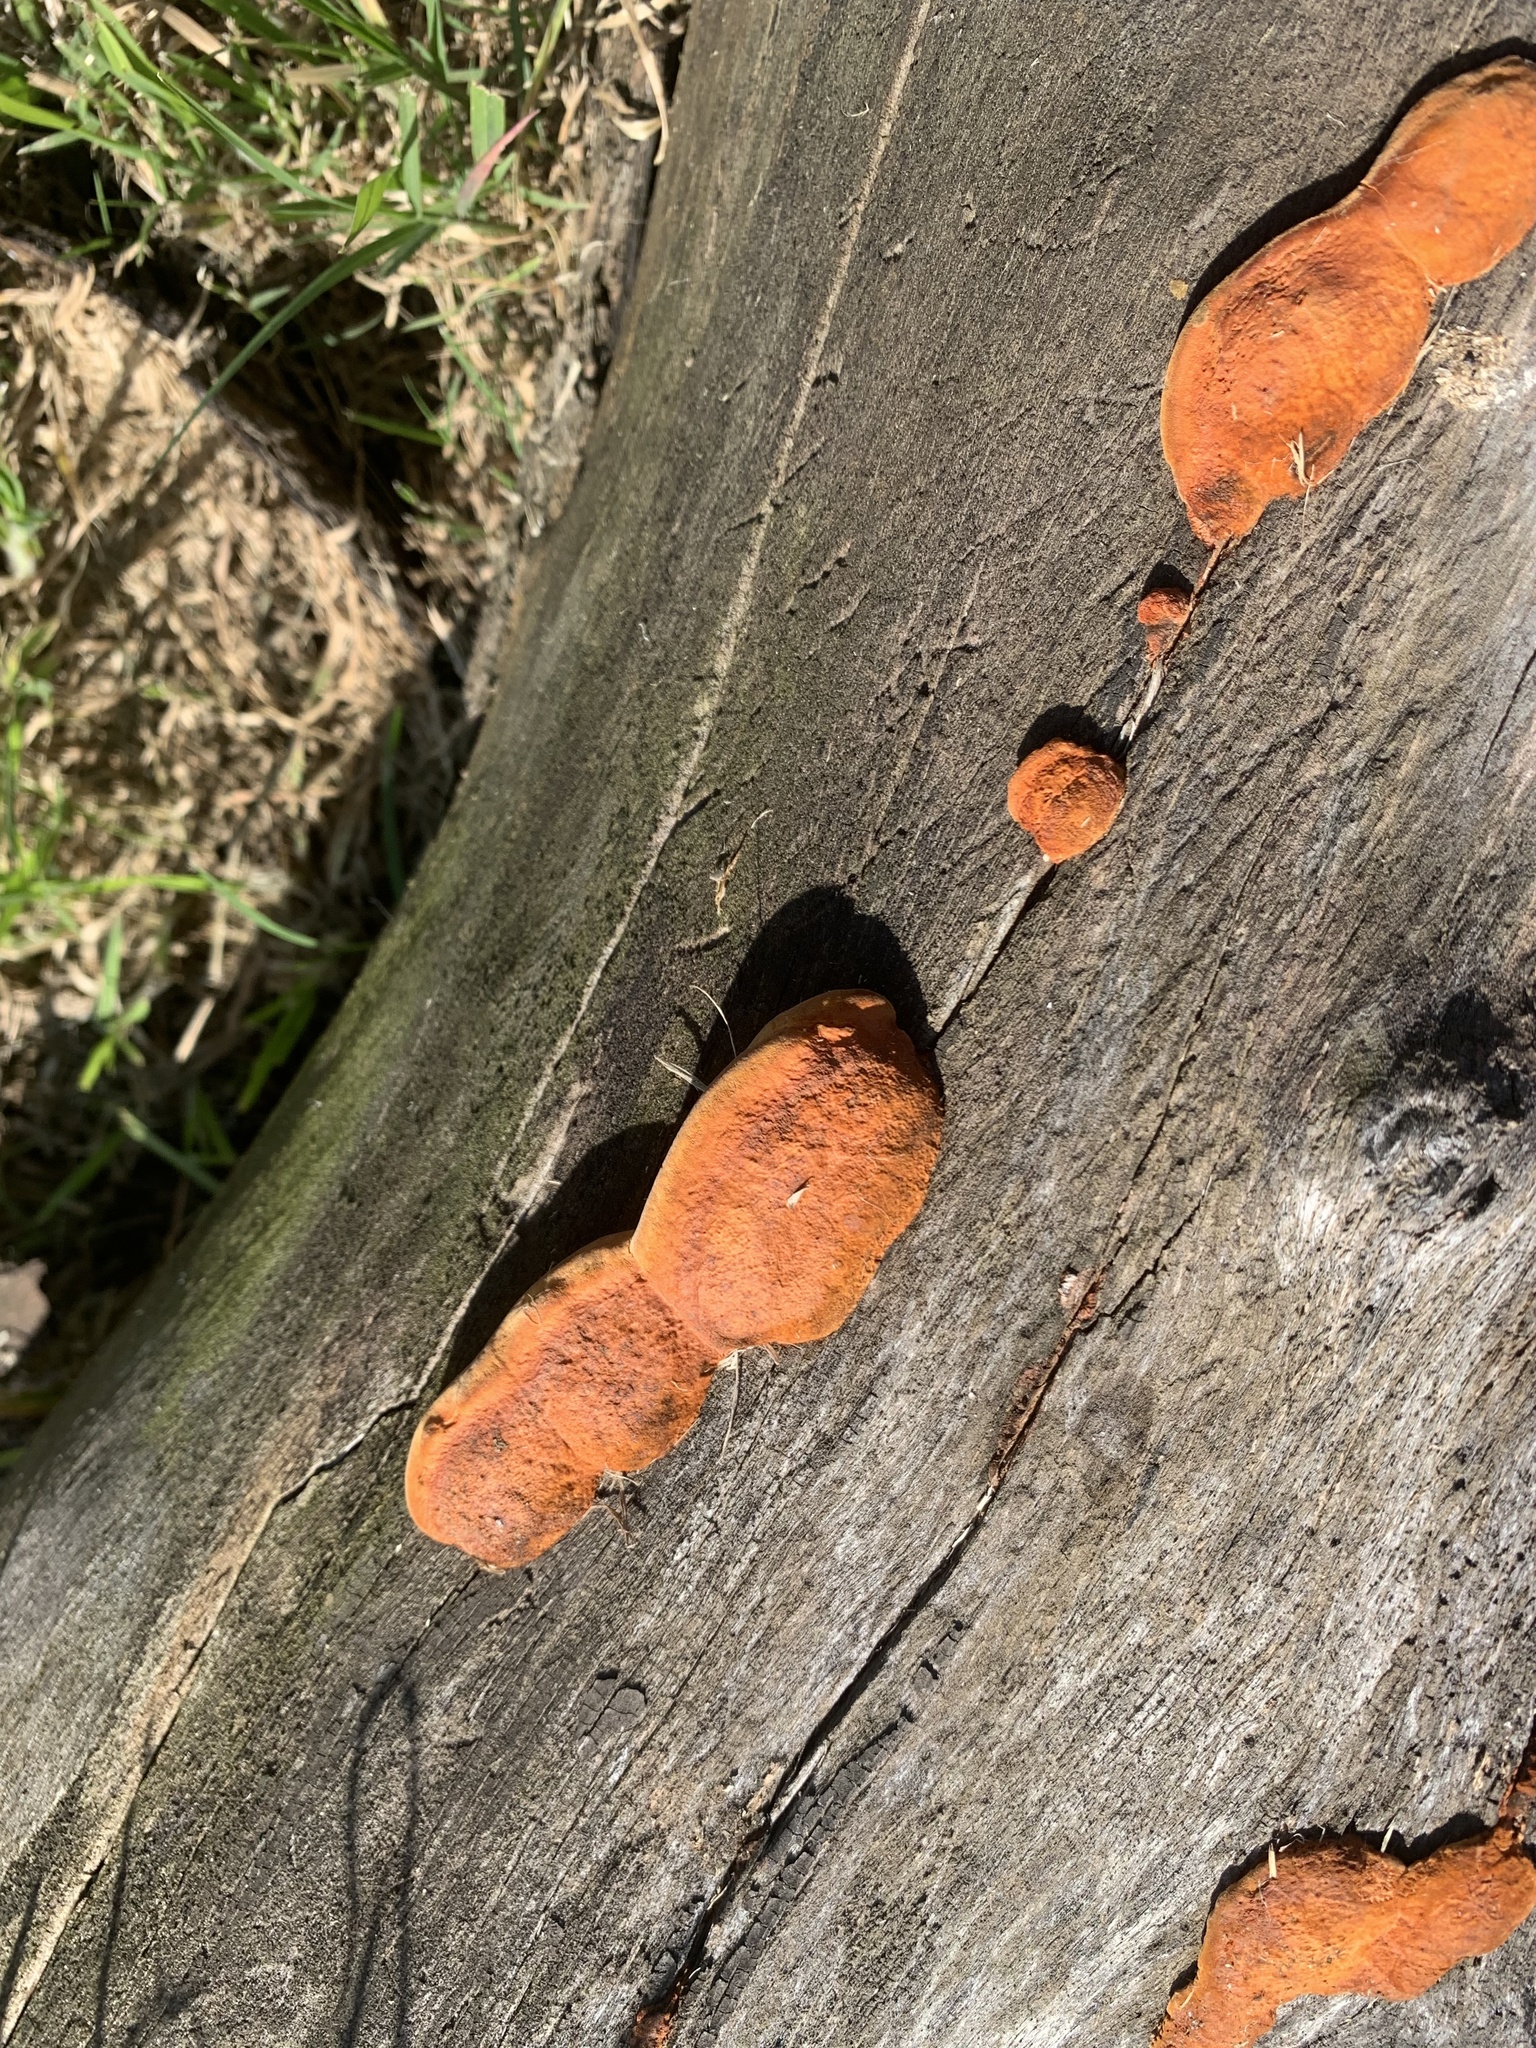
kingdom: Fungi
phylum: Basidiomycota
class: Agaricomycetes
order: Polyporales
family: Polyporaceae
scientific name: Polyporaceae
